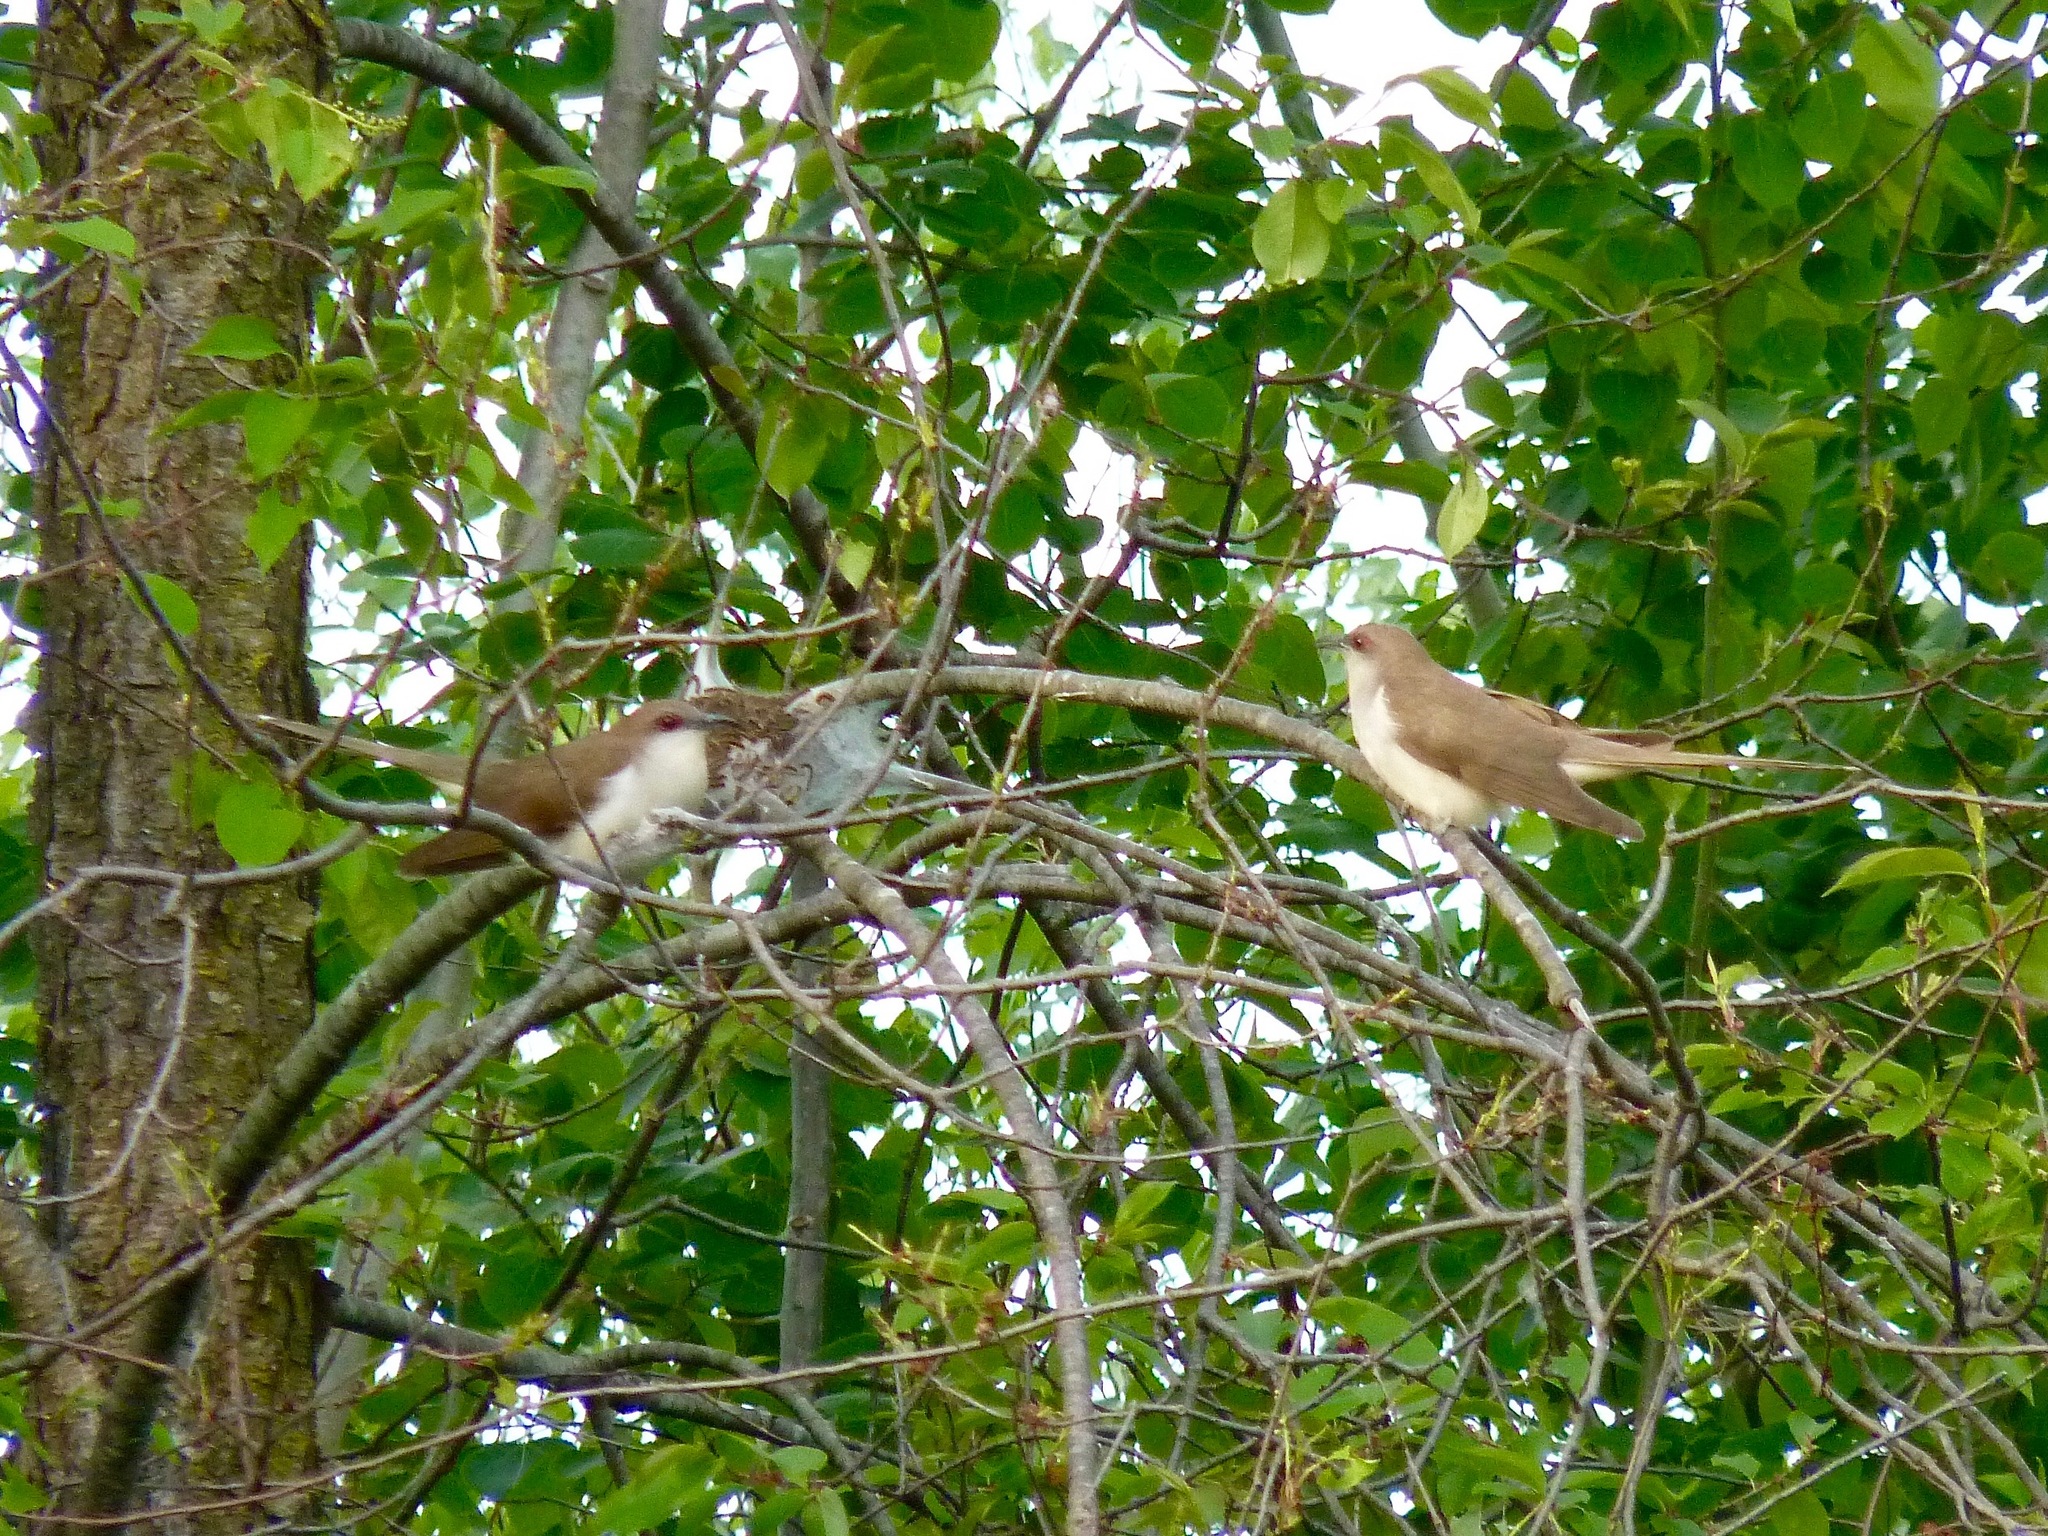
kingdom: Animalia
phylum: Chordata
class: Aves
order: Cuculiformes
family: Cuculidae
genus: Coccyzus
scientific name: Coccyzus erythropthalmus
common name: Black-billed cuckoo
